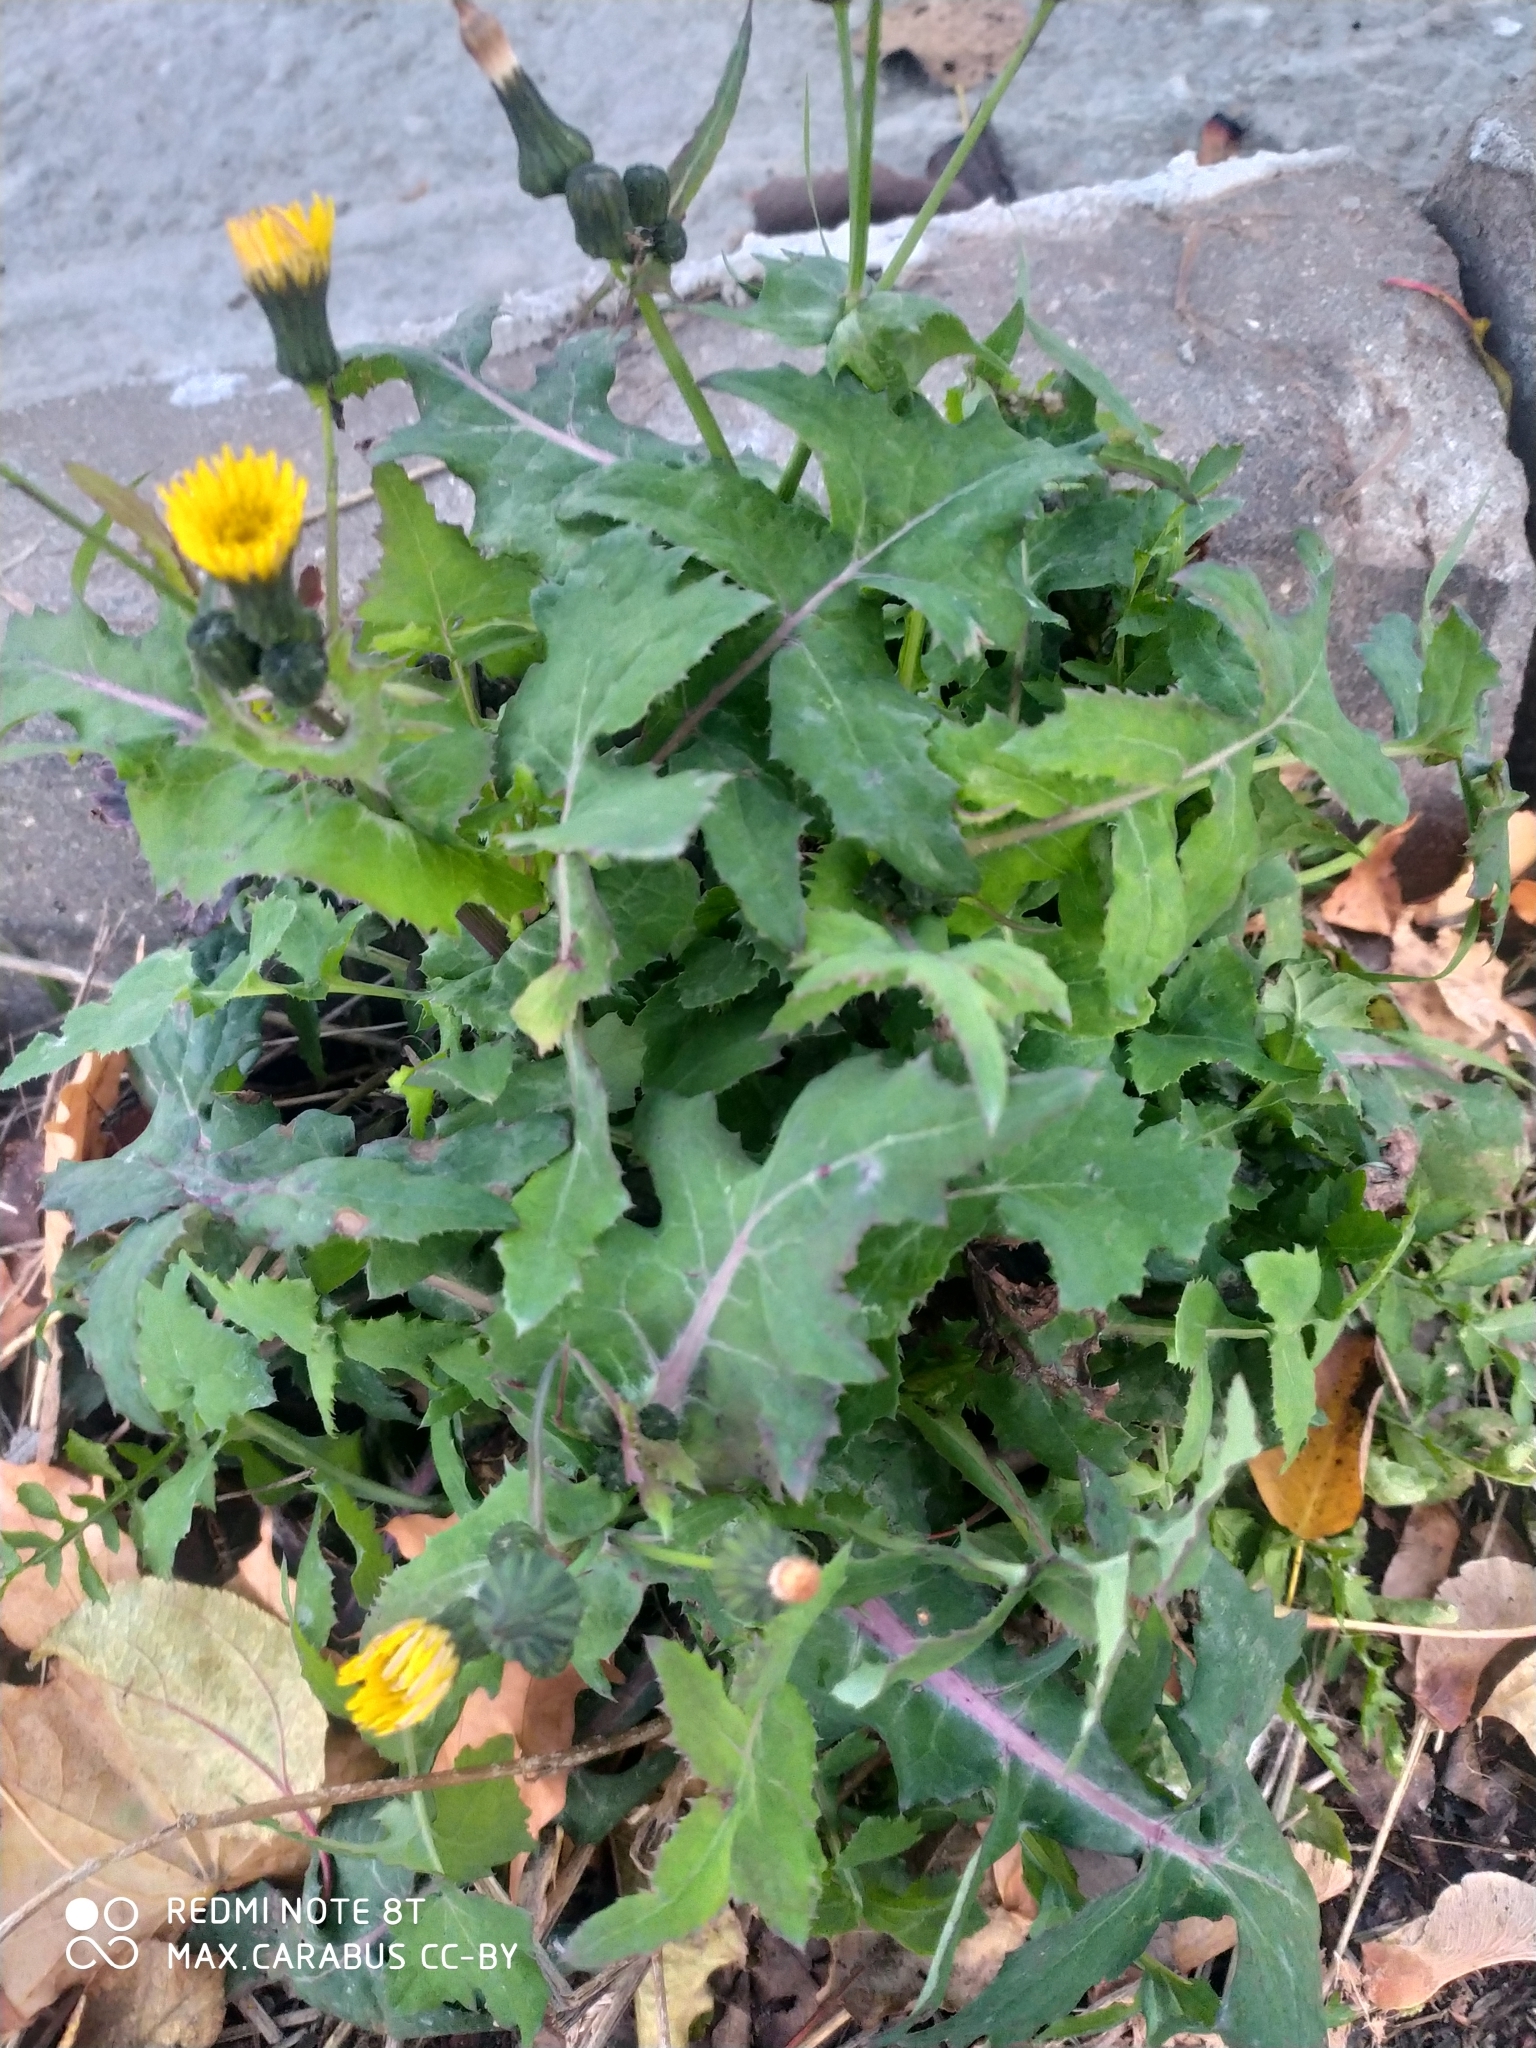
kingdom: Plantae
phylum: Tracheophyta
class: Magnoliopsida
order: Asterales
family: Asteraceae
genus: Sonchus
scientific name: Sonchus oleraceus
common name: Common sowthistle
